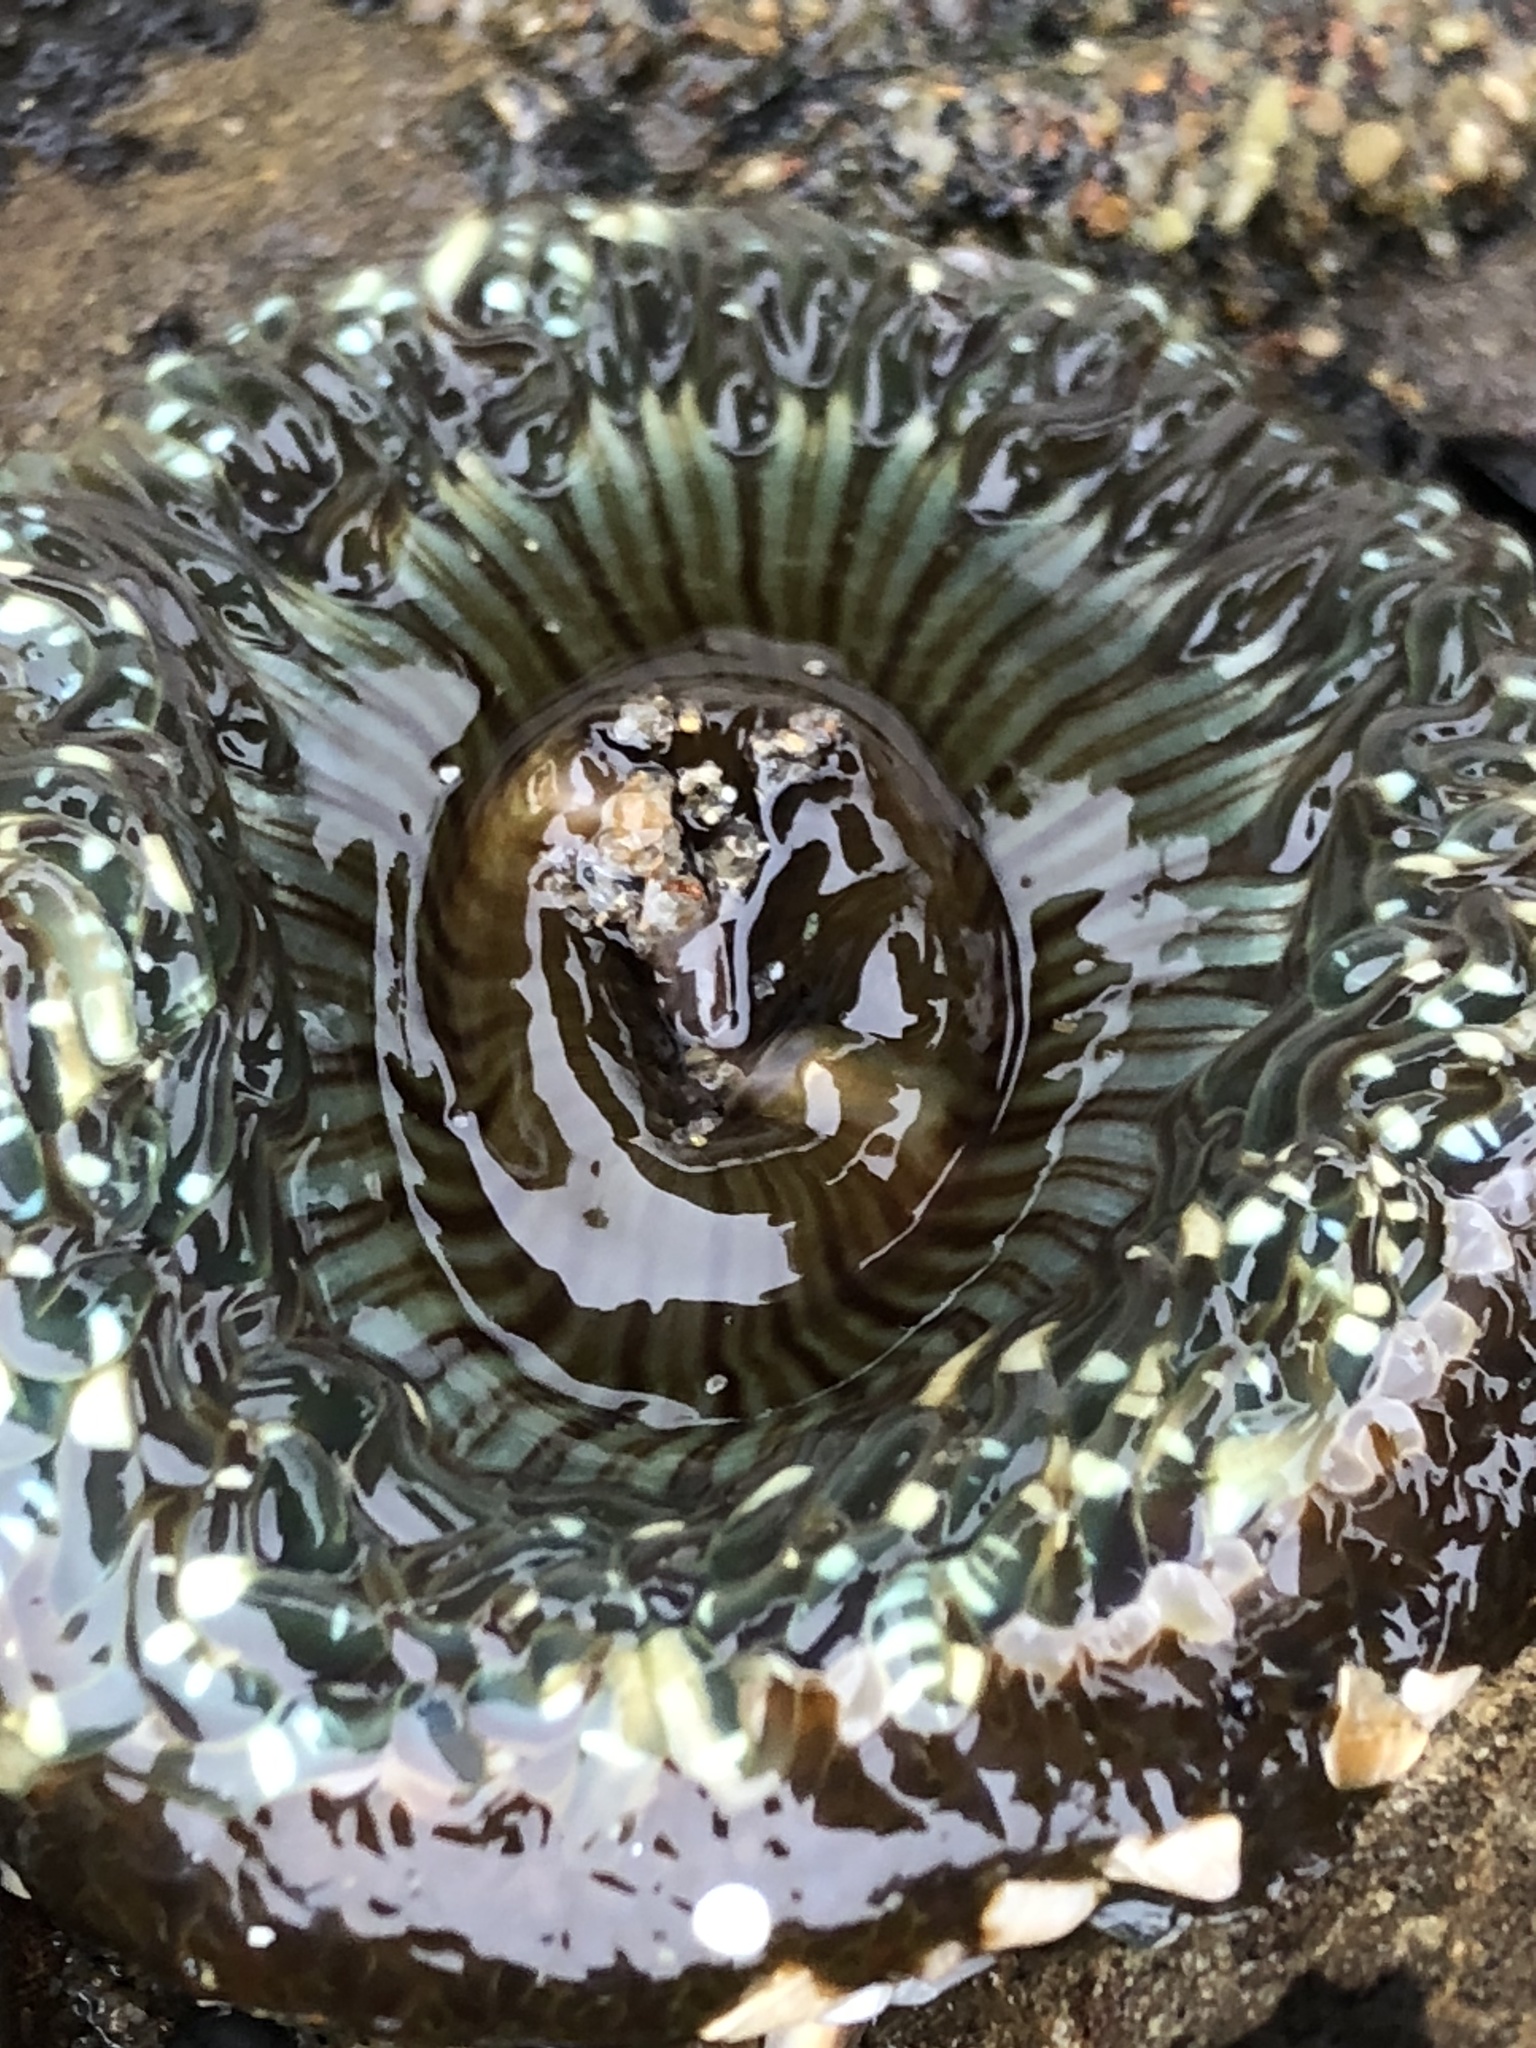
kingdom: Animalia
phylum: Cnidaria
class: Anthozoa
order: Actiniaria
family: Actiniidae
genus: Anthopleura
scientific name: Anthopleura sola
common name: Sun anemone
